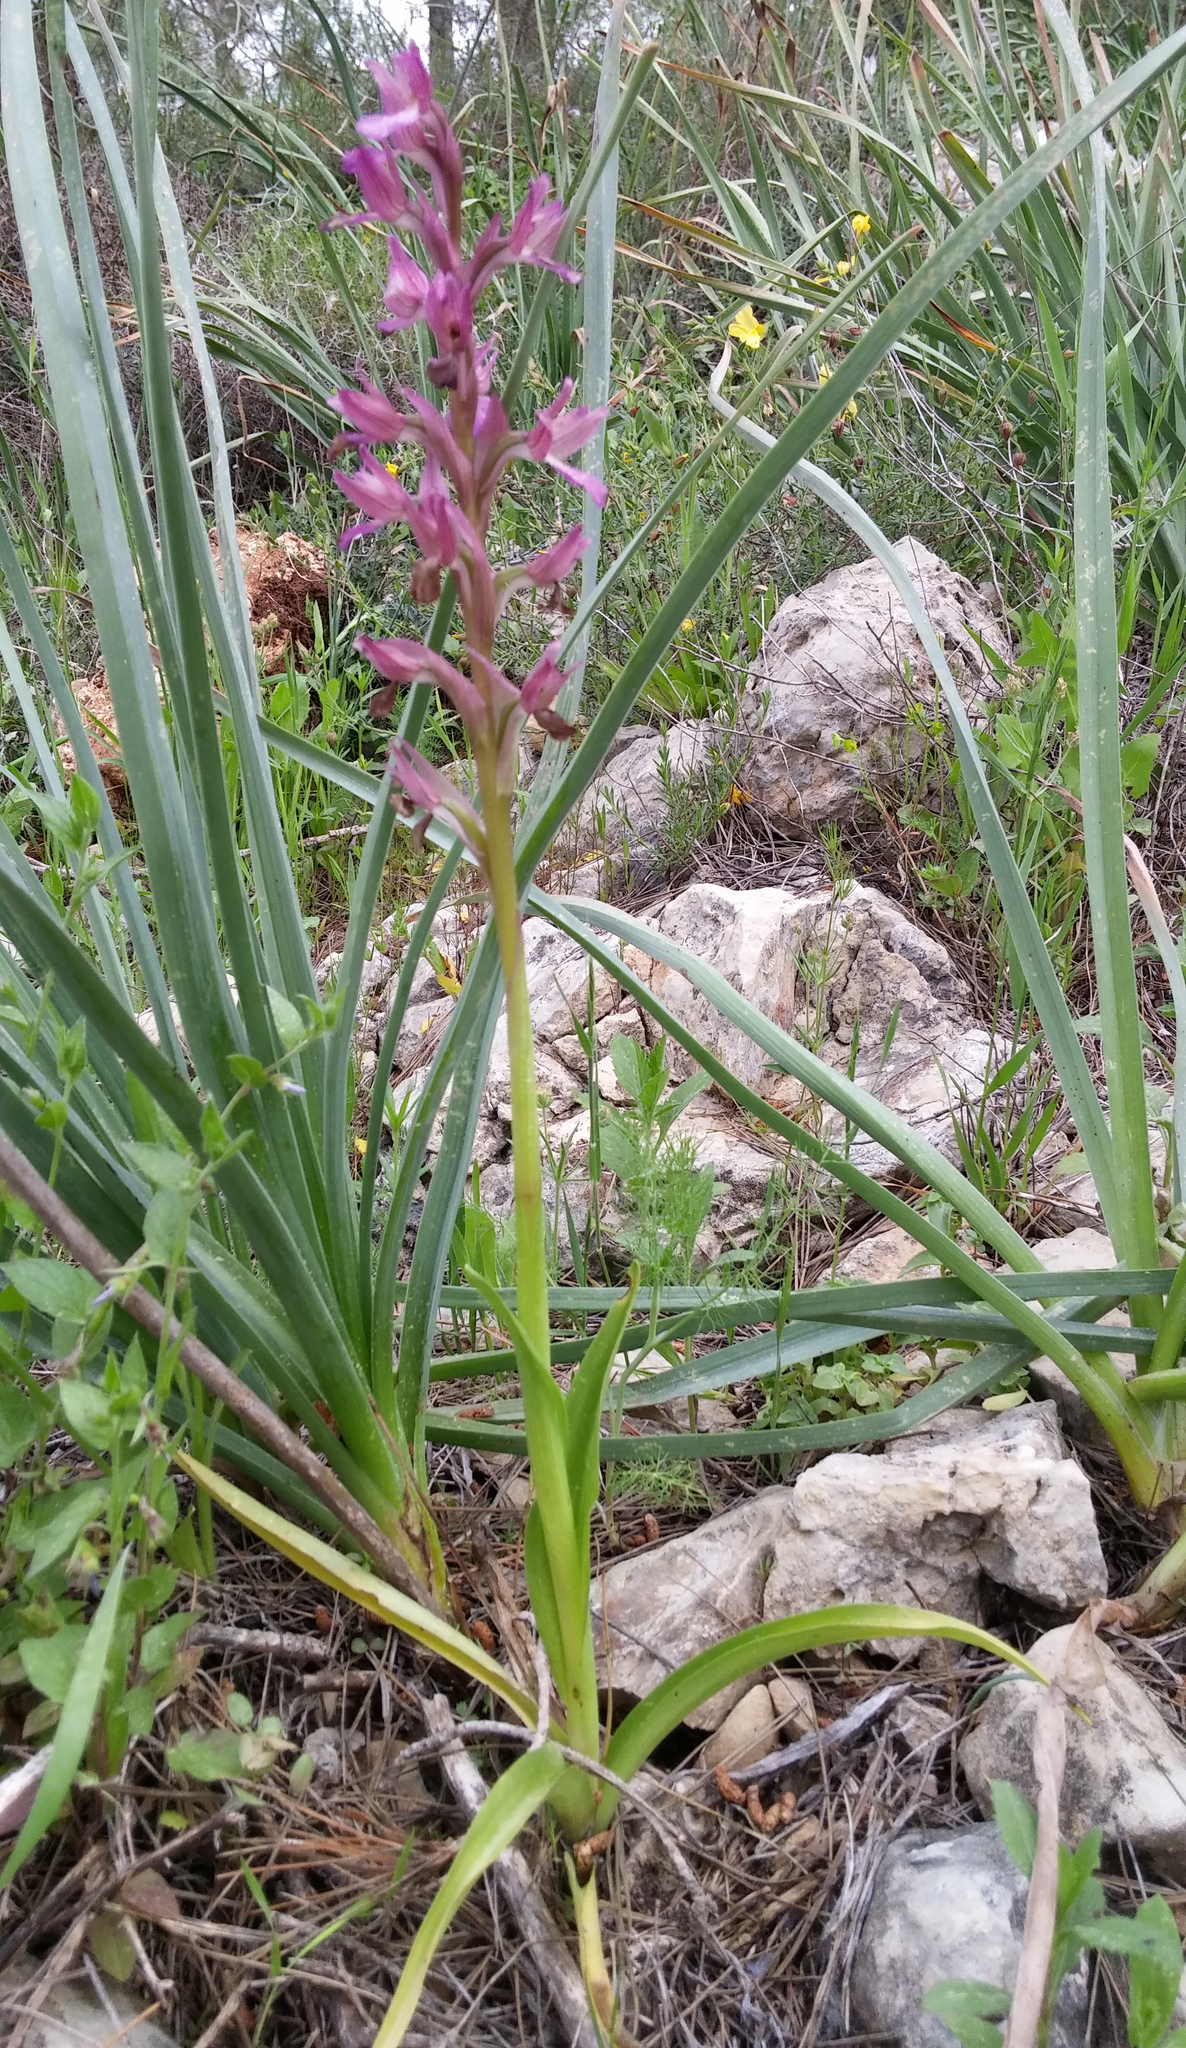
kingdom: Plantae
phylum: Tracheophyta
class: Liliopsida
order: Asparagales
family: Orchidaceae
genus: Anacamptis
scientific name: Anacamptis papilionacea
